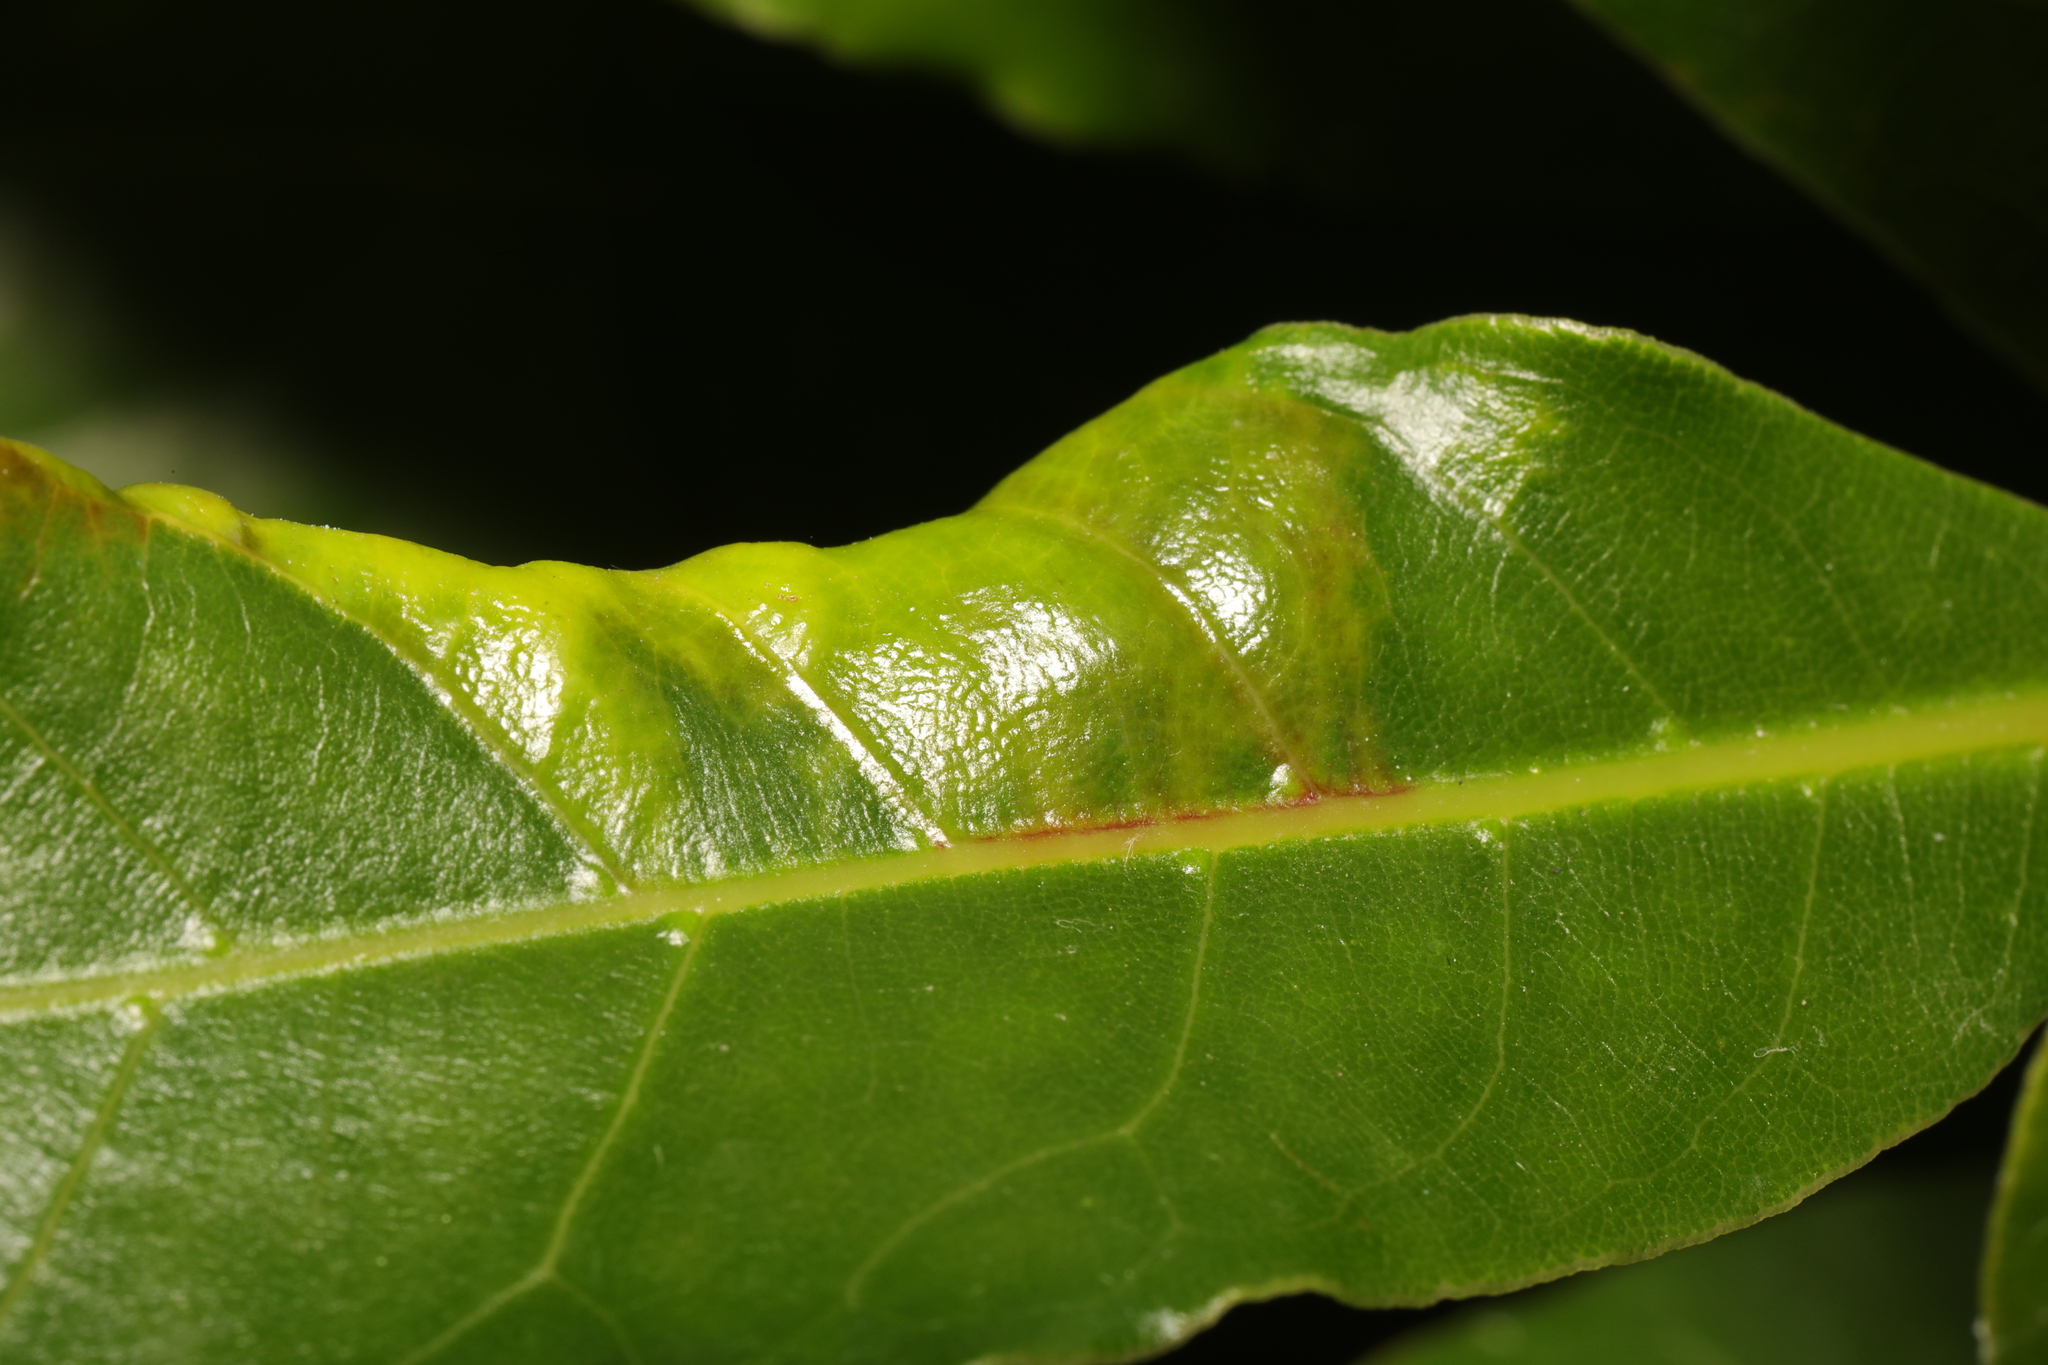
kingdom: Animalia
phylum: Arthropoda
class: Insecta
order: Hemiptera
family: Triozidae
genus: Lauritrioza
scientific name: Lauritrioza alacris
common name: Laurel psyllid
